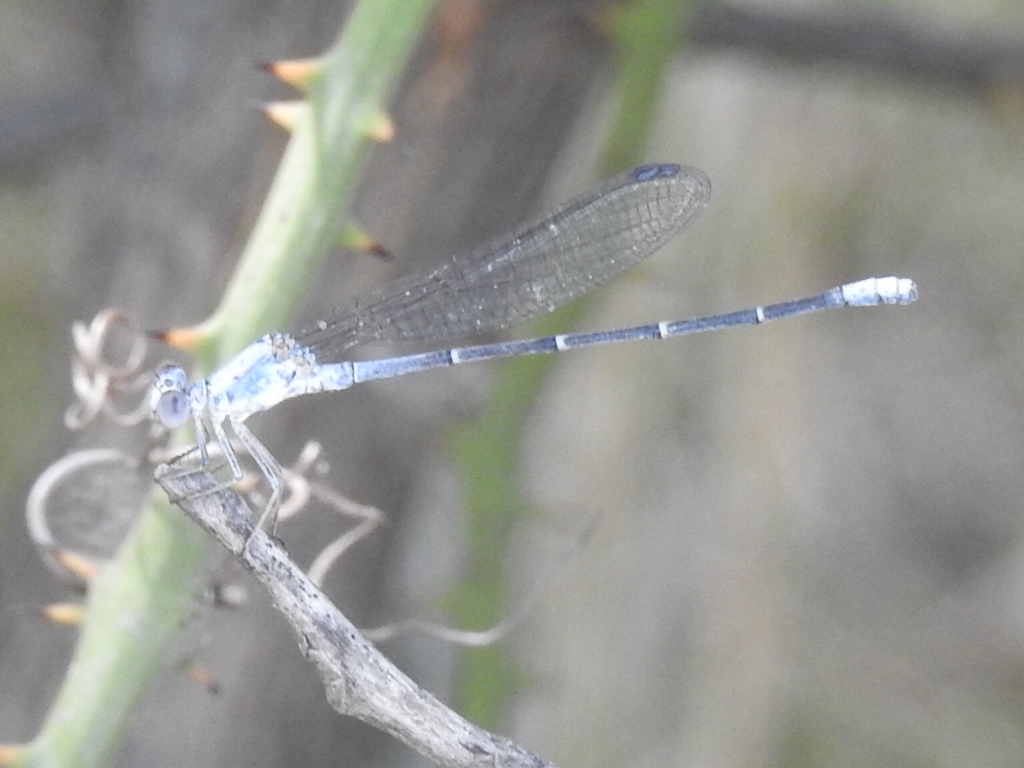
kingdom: Animalia
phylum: Arthropoda
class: Insecta
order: Odonata
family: Coenagrionidae
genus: Argia
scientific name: Argia moesta
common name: Powdered dancer
